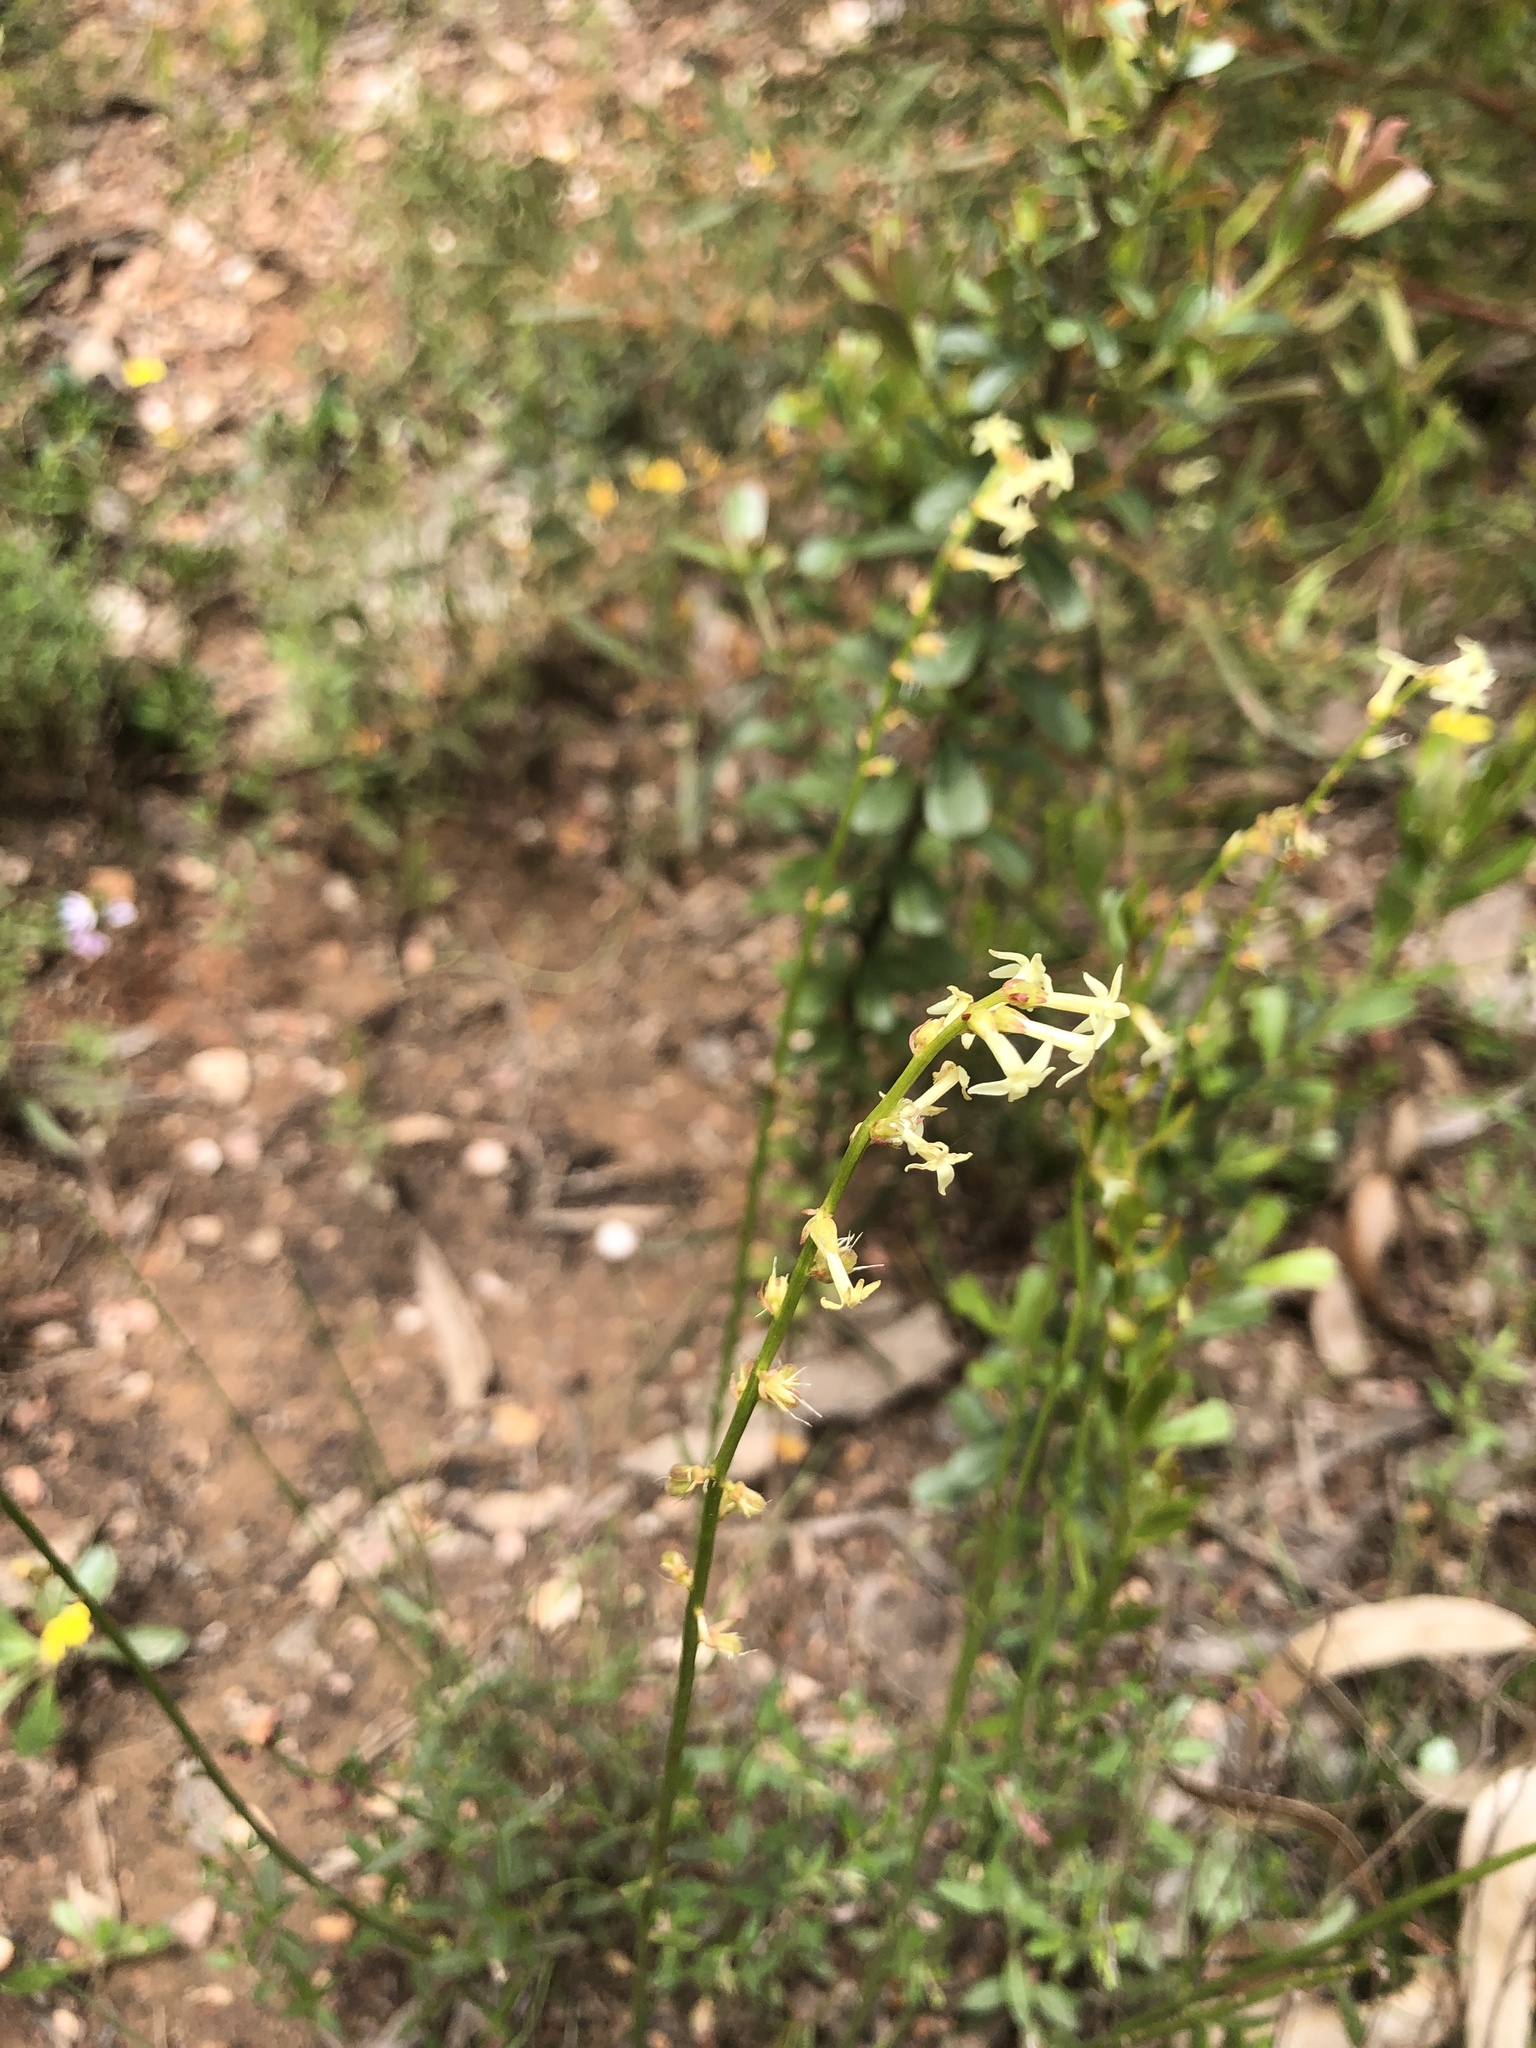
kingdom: Plantae
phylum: Tracheophyta
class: Magnoliopsida
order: Celastrales
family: Celastraceae
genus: Stackhousia
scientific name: Stackhousia monogyna
